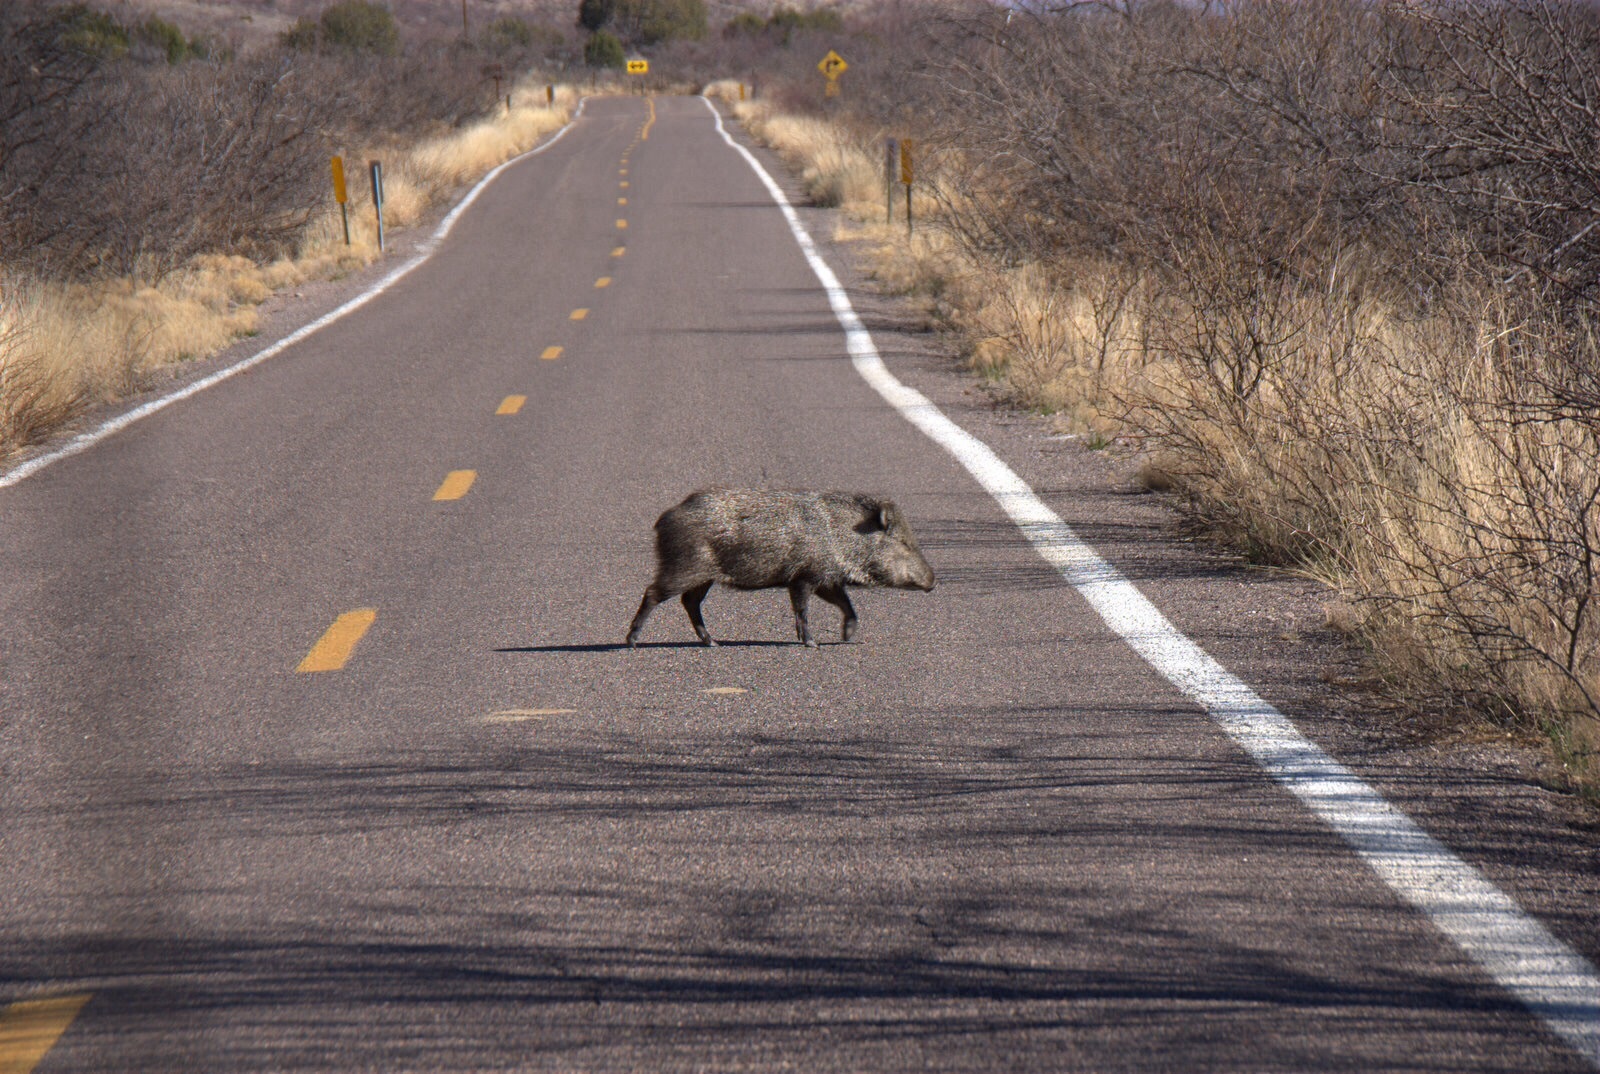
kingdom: Animalia
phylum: Chordata
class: Mammalia
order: Artiodactyla
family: Tayassuidae
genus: Pecari
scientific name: Pecari tajacu
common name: Collared peccary
